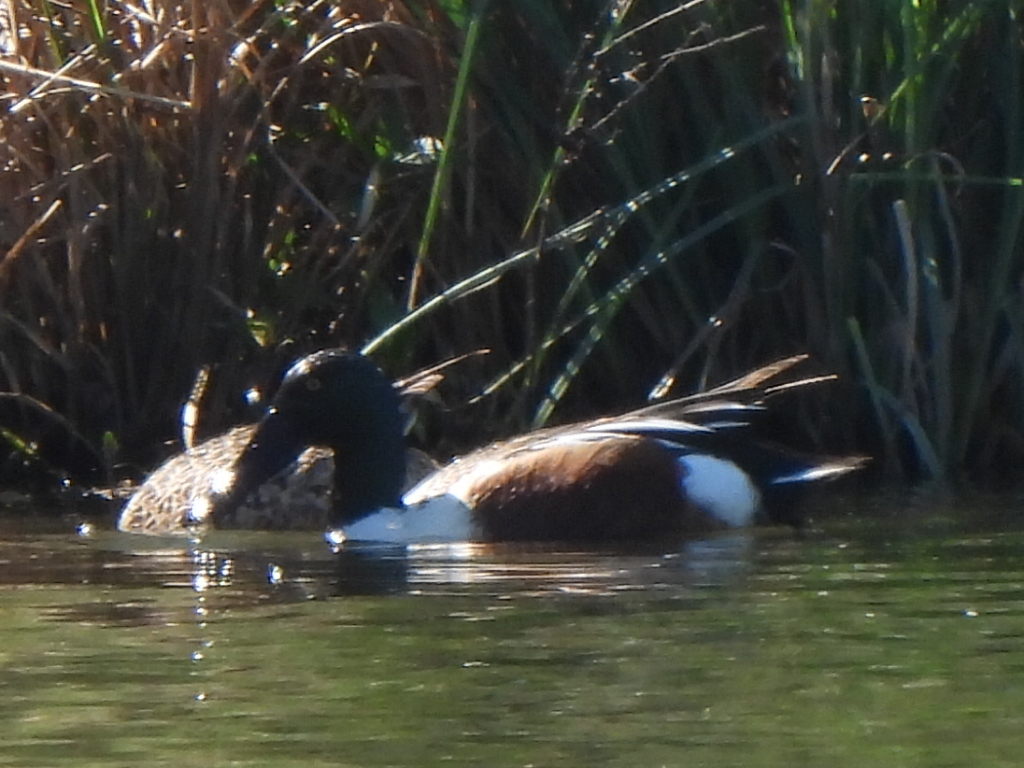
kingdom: Animalia
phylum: Chordata
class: Aves
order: Anseriformes
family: Anatidae
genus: Spatula
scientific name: Spatula clypeata
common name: Northern shoveler
